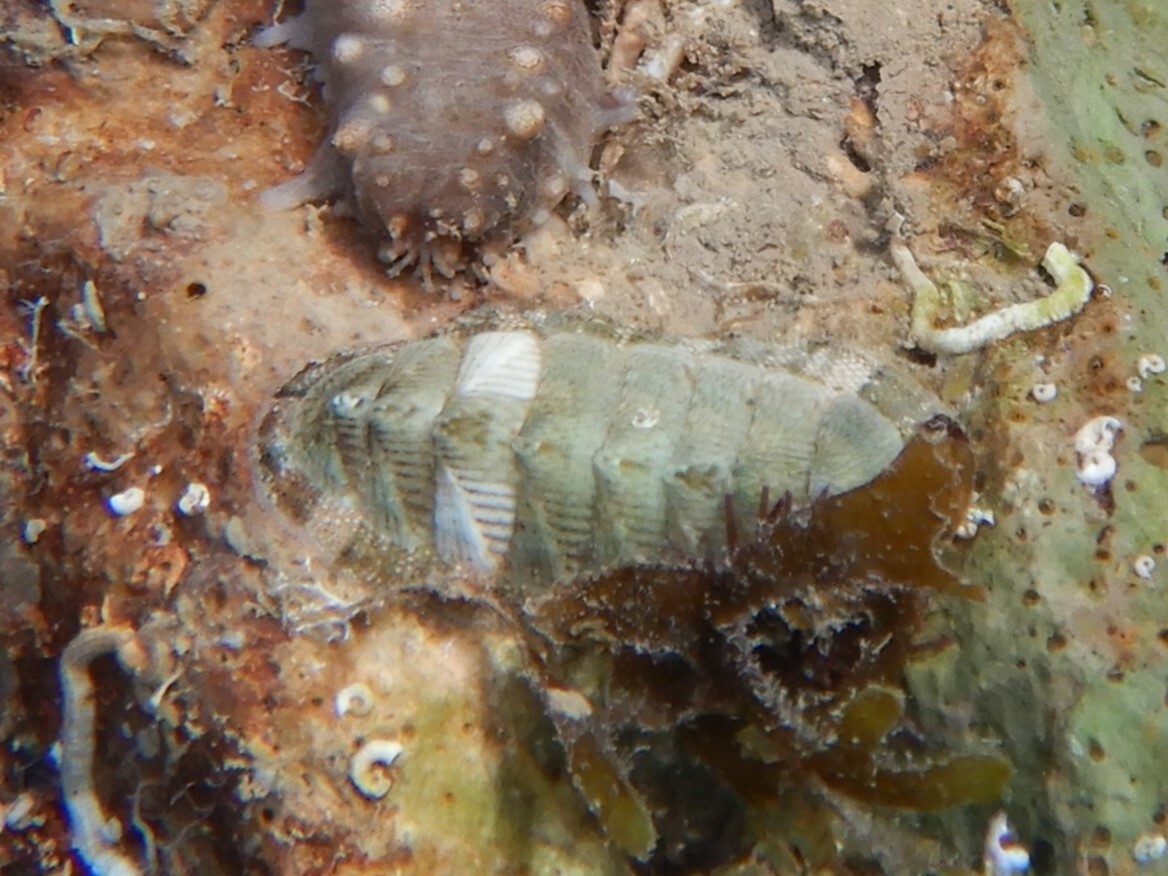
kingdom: Animalia
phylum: Mollusca
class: Polyplacophora
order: Chitonida
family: Chitonidae
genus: Rhyssoplax
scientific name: Rhyssoplax olivacea
